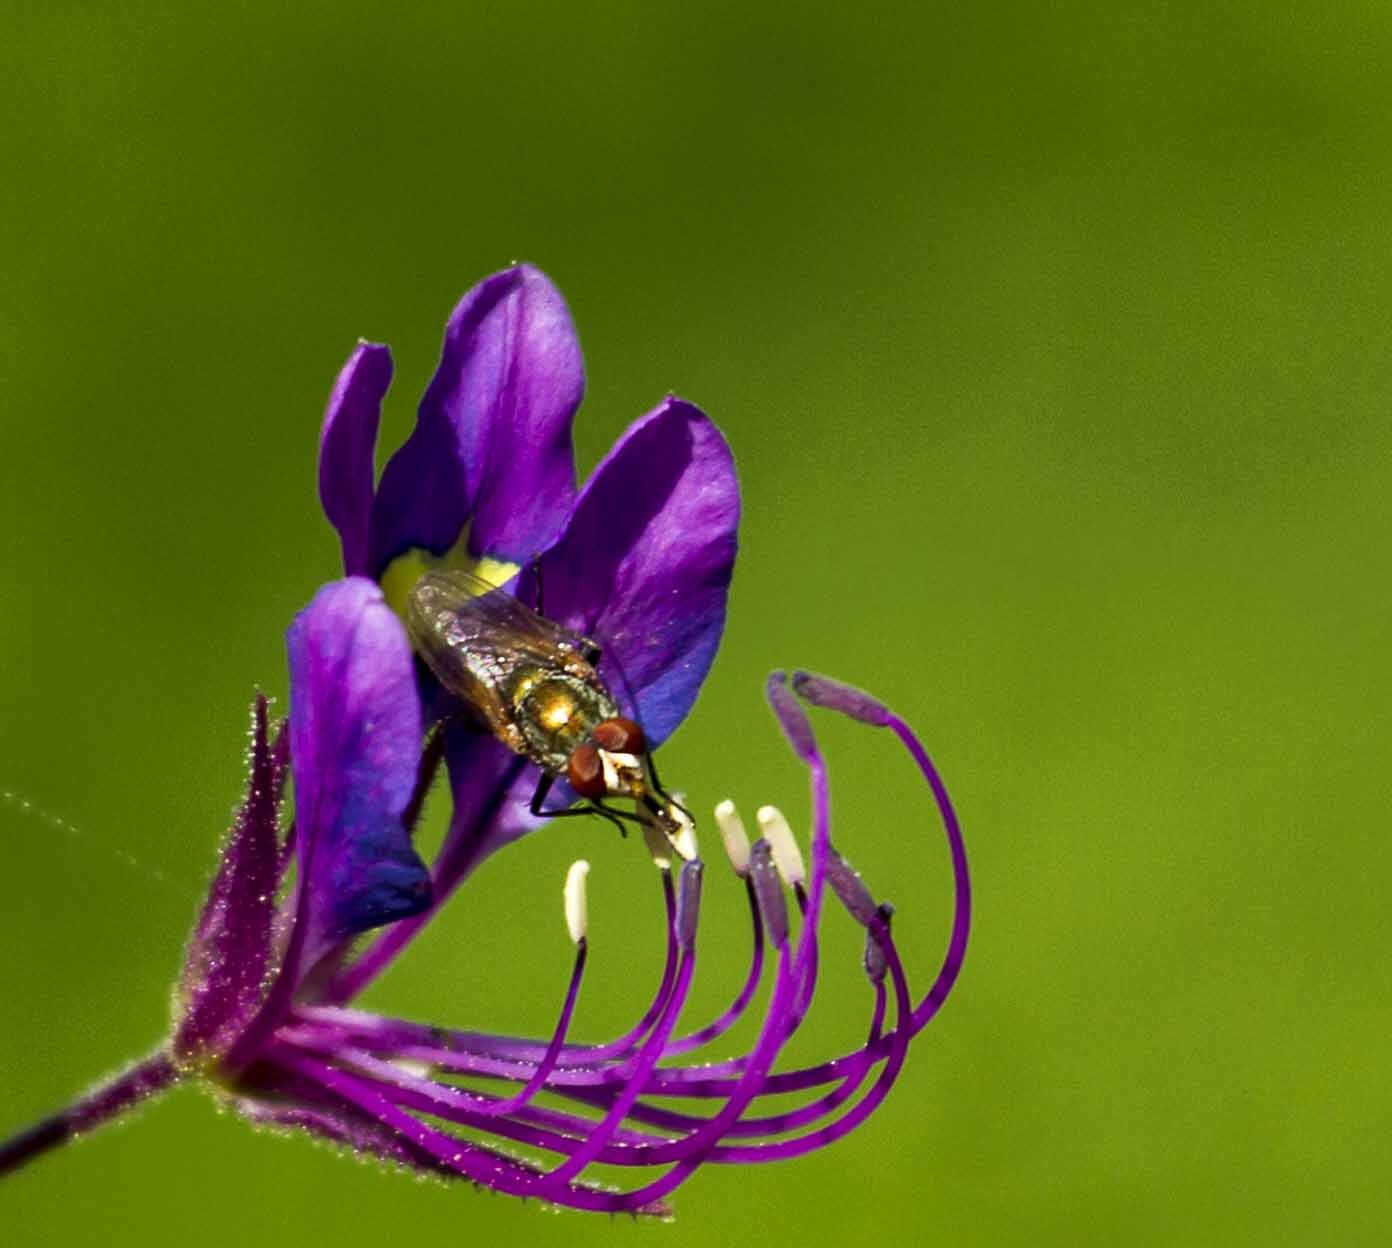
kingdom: Plantae
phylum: Tracheophyta
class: Magnoliopsida
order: Brassicales
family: Cleomaceae
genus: Sieruela
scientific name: Sieruela
